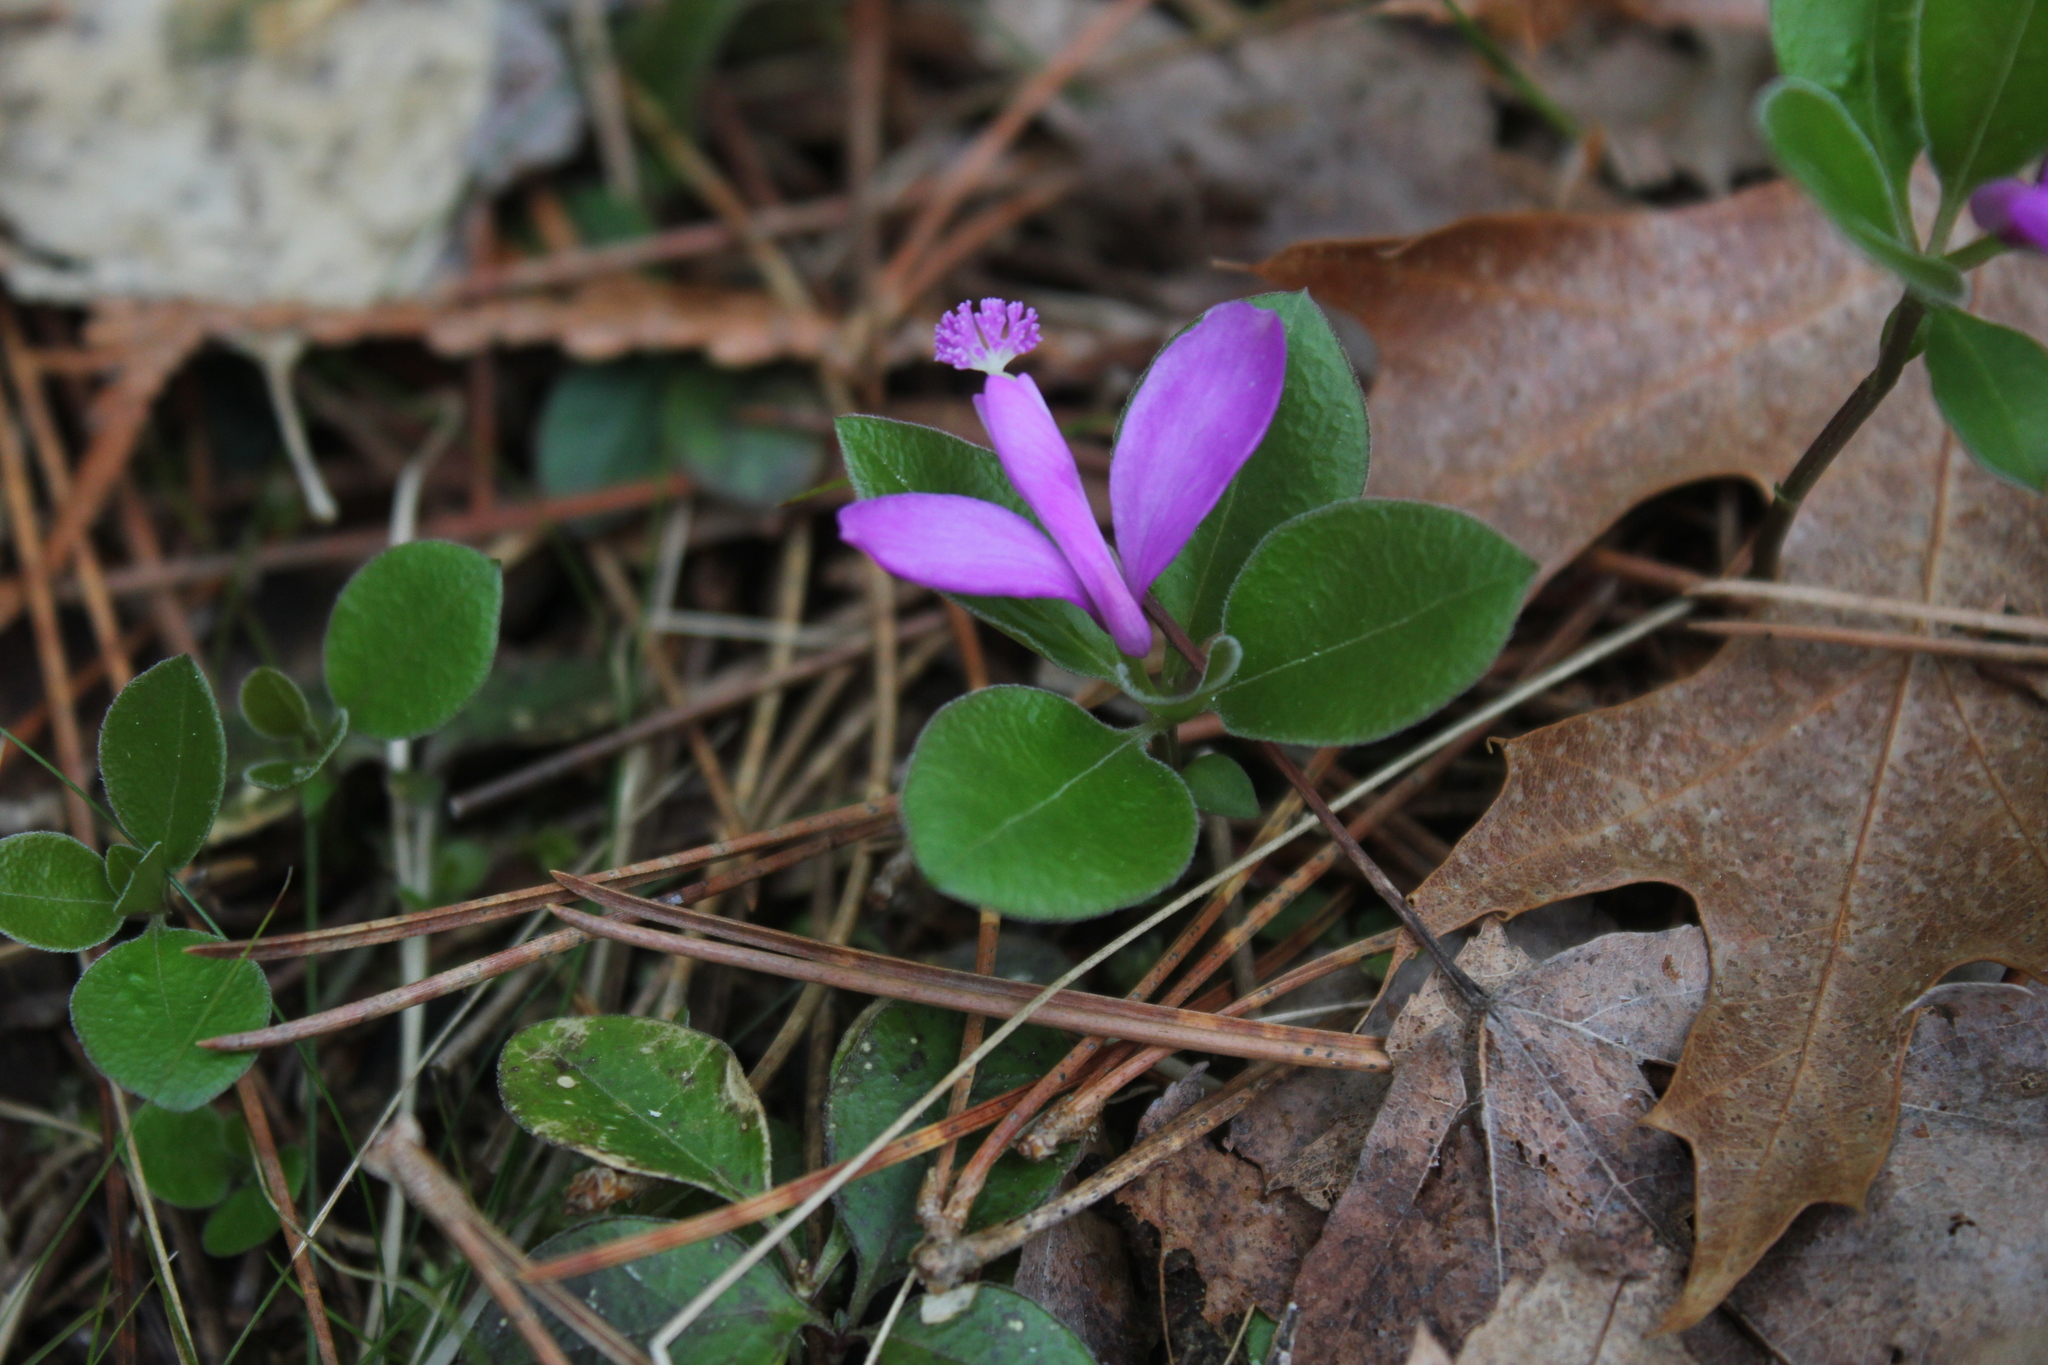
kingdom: Plantae
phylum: Tracheophyta
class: Magnoliopsida
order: Fabales
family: Polygalaceae
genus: Polygaloides
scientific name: Polygaloides paucifolia
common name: Bird-on-the-wing
